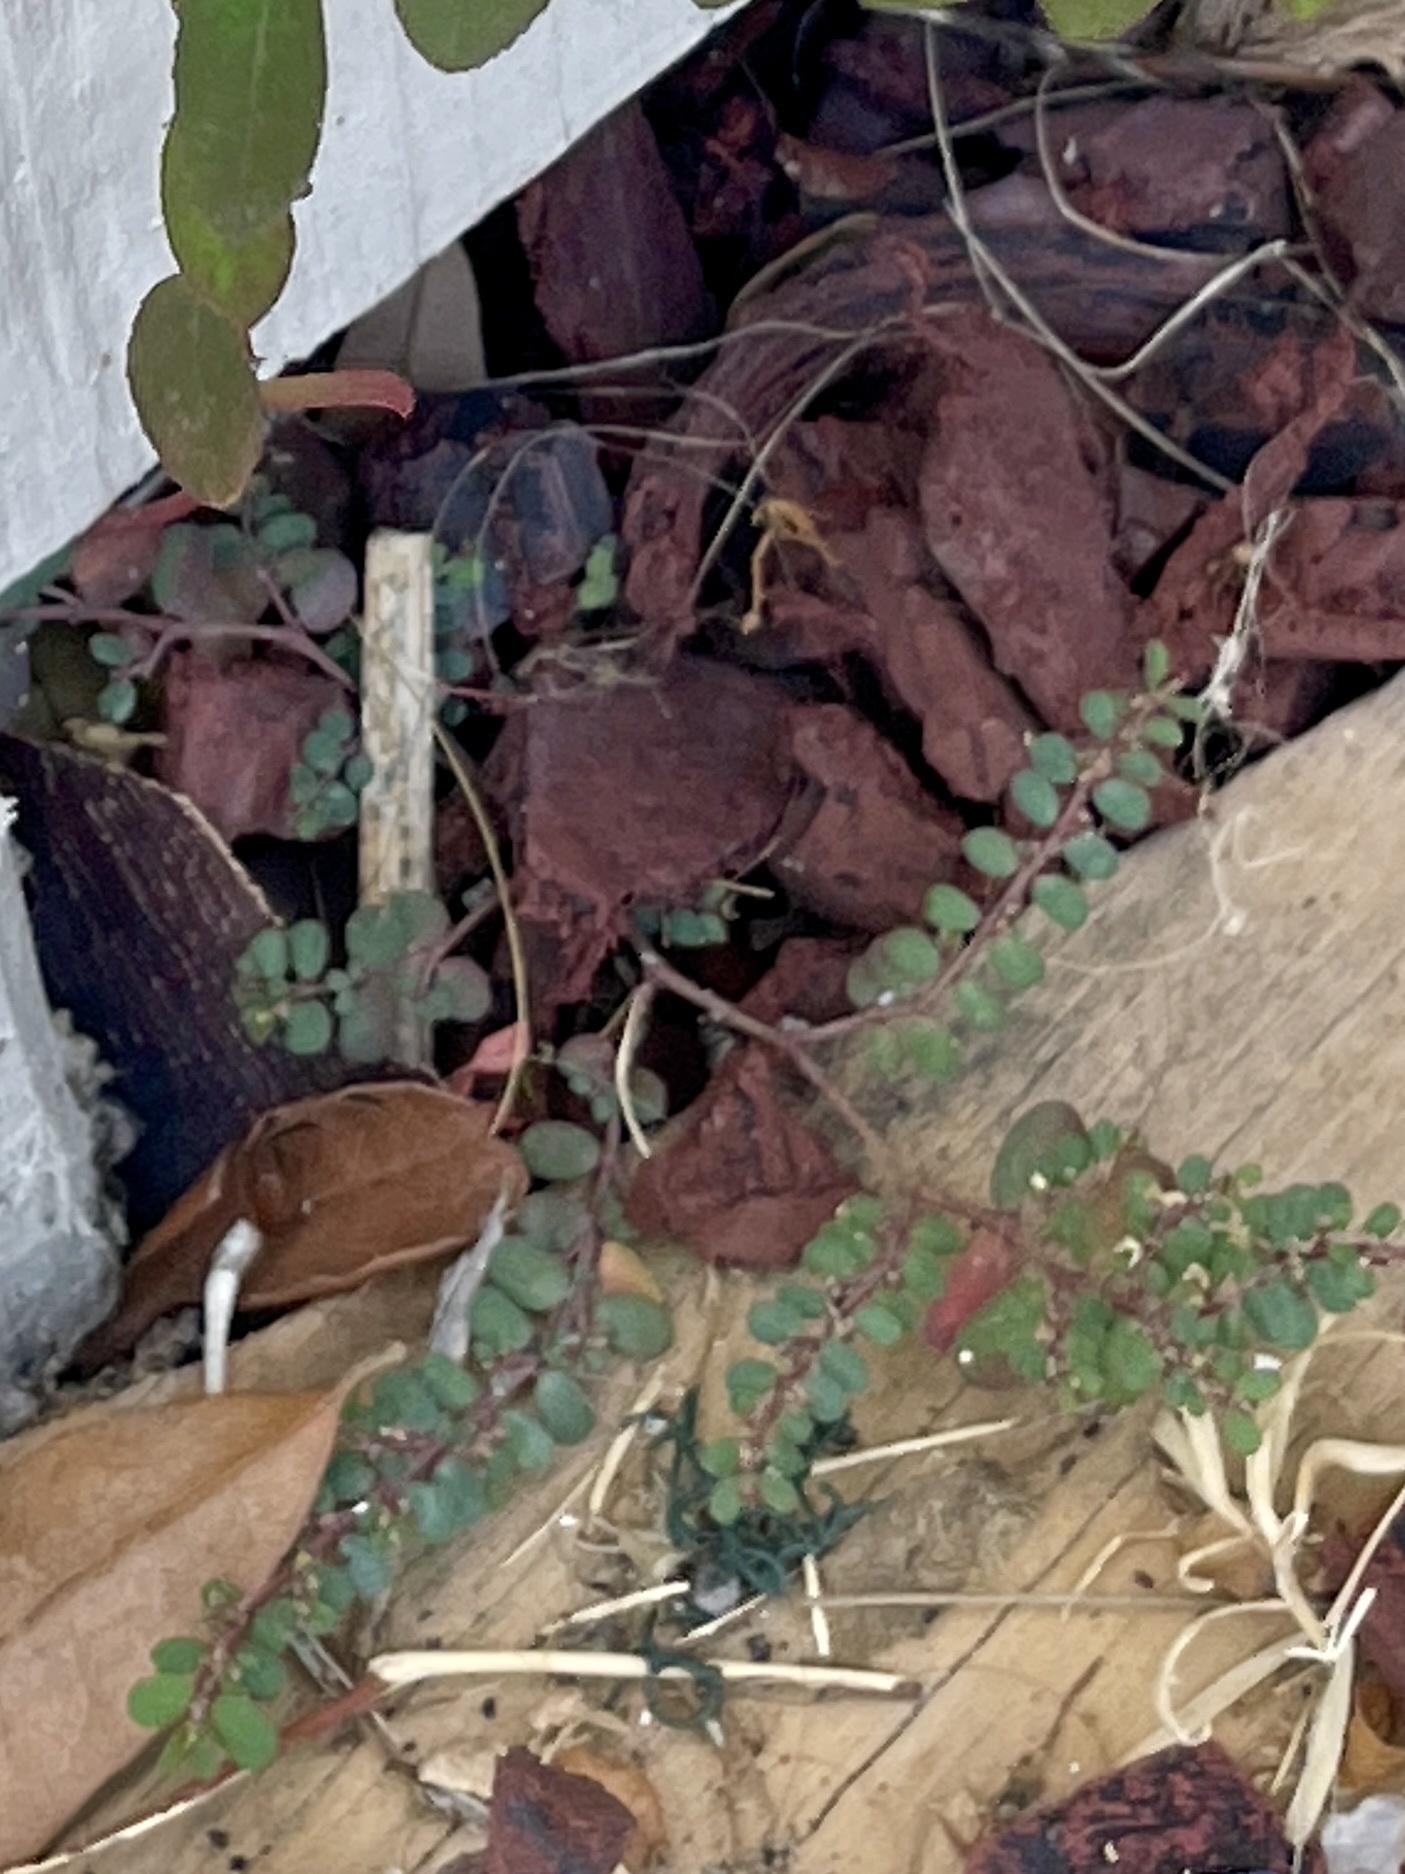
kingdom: Plantae
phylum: Tracheophyta
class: Magnoliopsida
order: Malpighiales
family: Euphorbiaceae
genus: Euphorbia
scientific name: Euphorbia prostrata
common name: Prostrate sandmat
